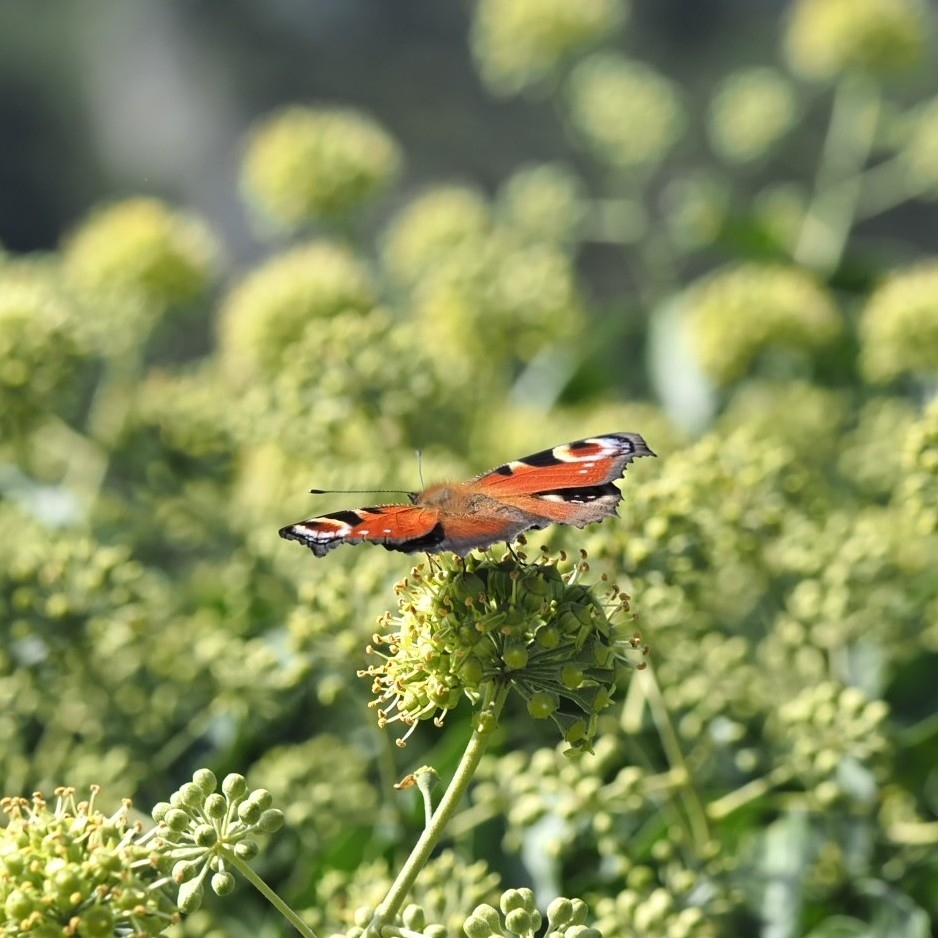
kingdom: Animalia
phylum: Arthropoda
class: Insecta
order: Lepidoptera
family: Nymphalidae
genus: Aglais
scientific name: Aglais io
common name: Peacock
